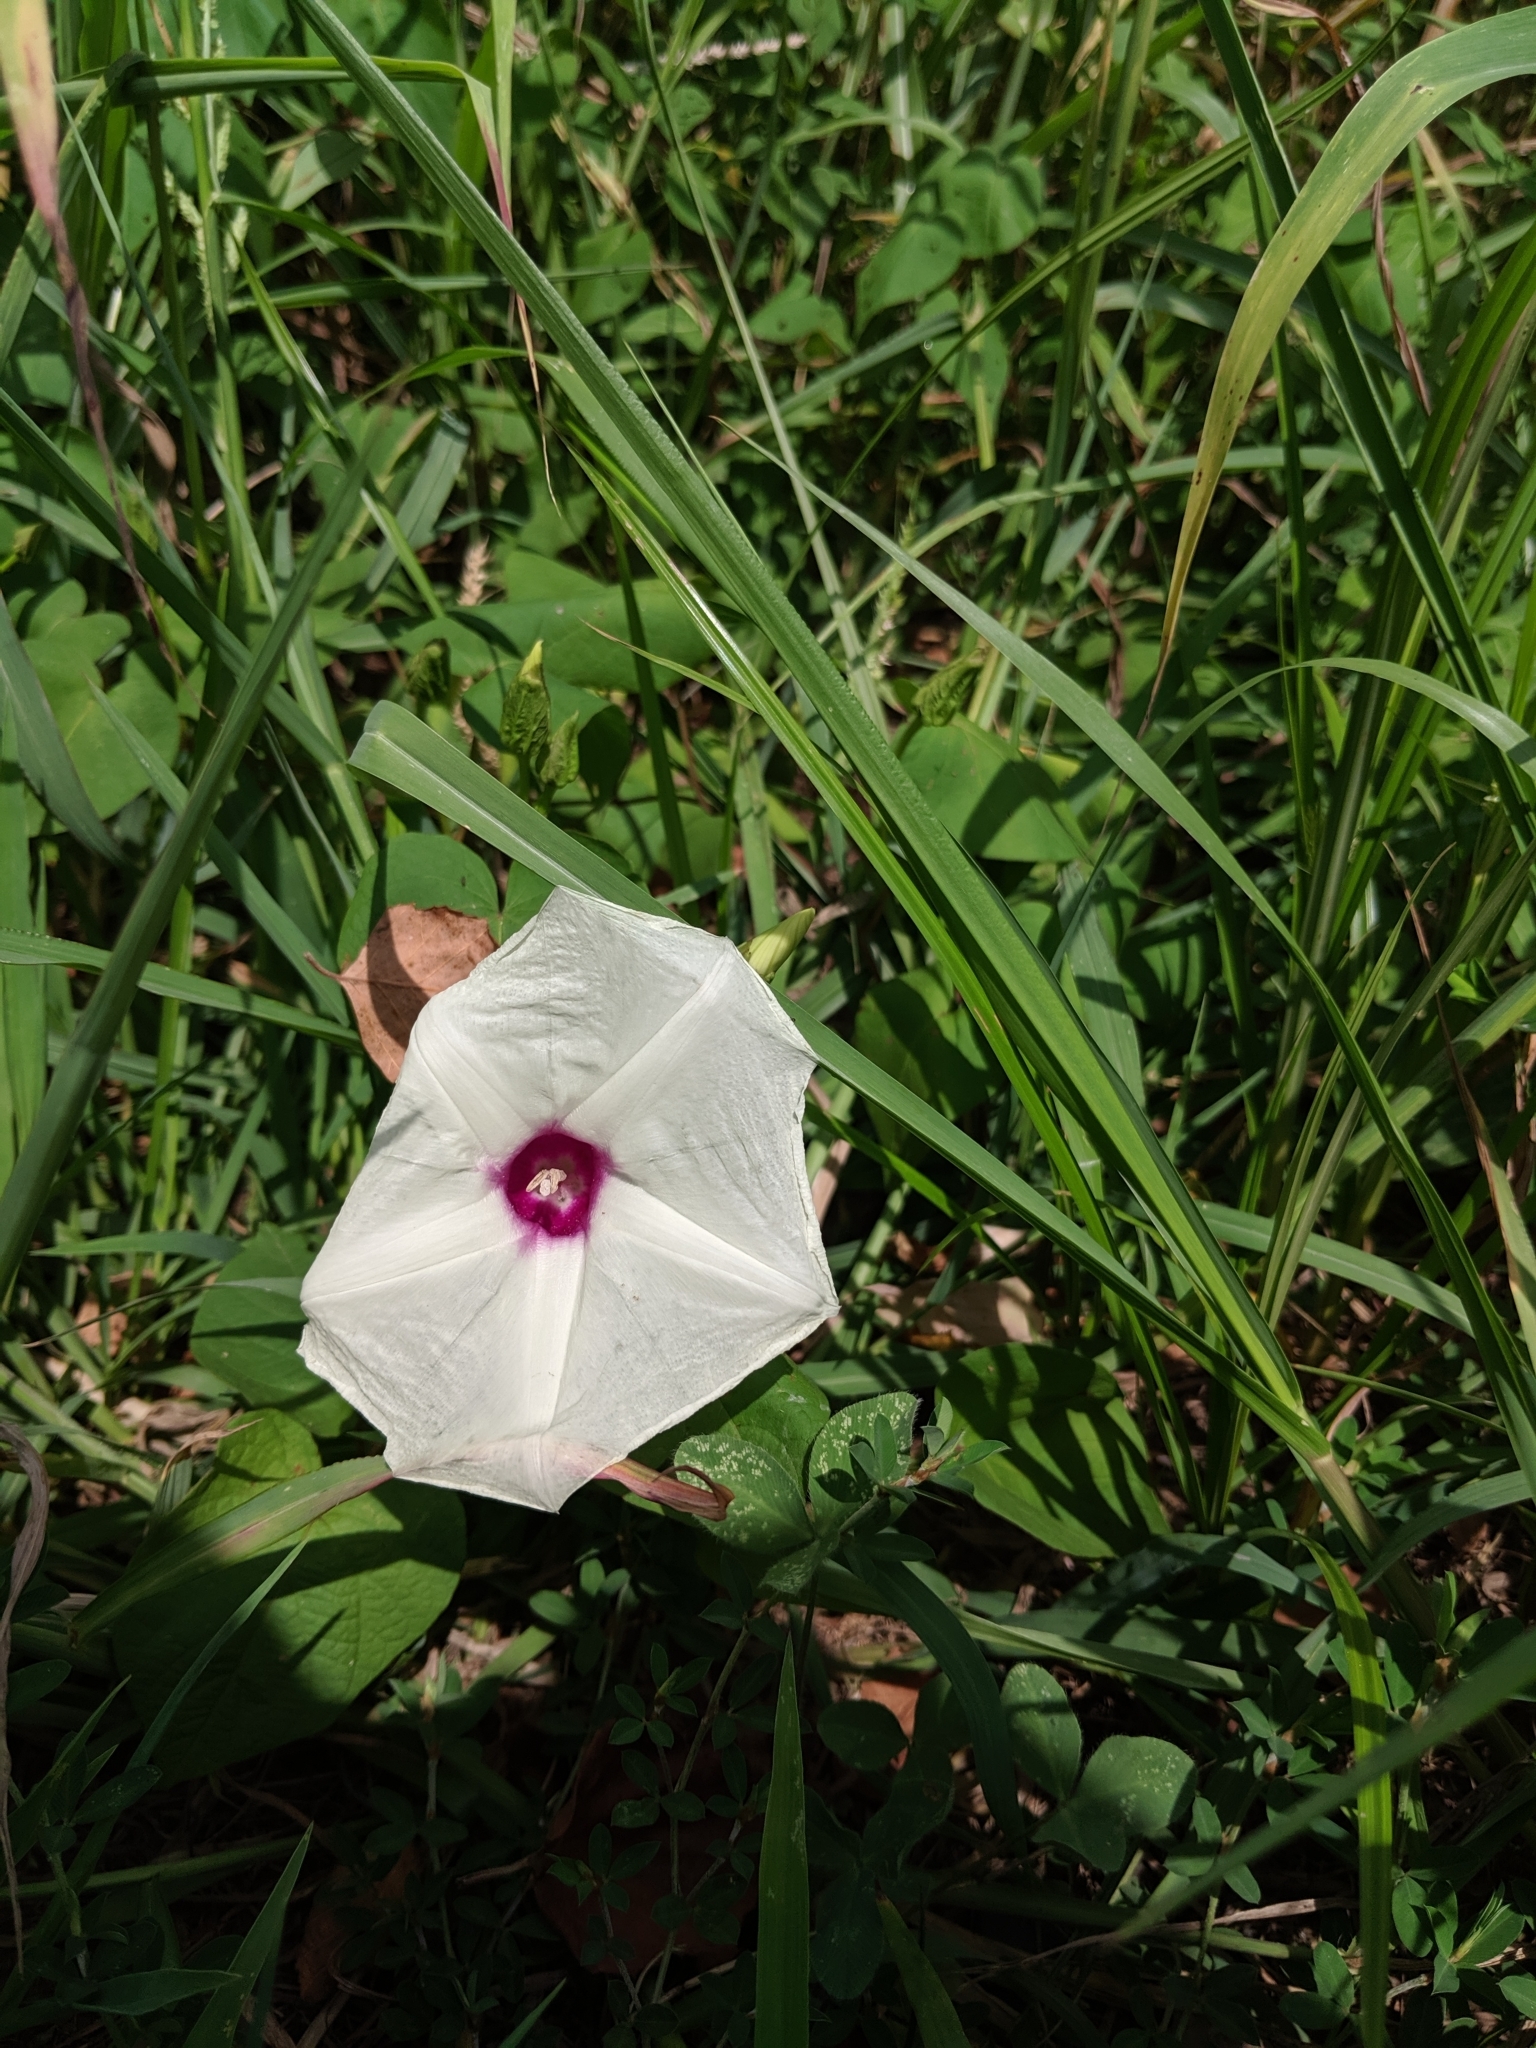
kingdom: Plantae
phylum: Tracheophyta
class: Magnoliopsida
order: Solanales
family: Convolvulaceae
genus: Ipomoea
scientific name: Ipomoea pandurata
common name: Man-of-the-earth
